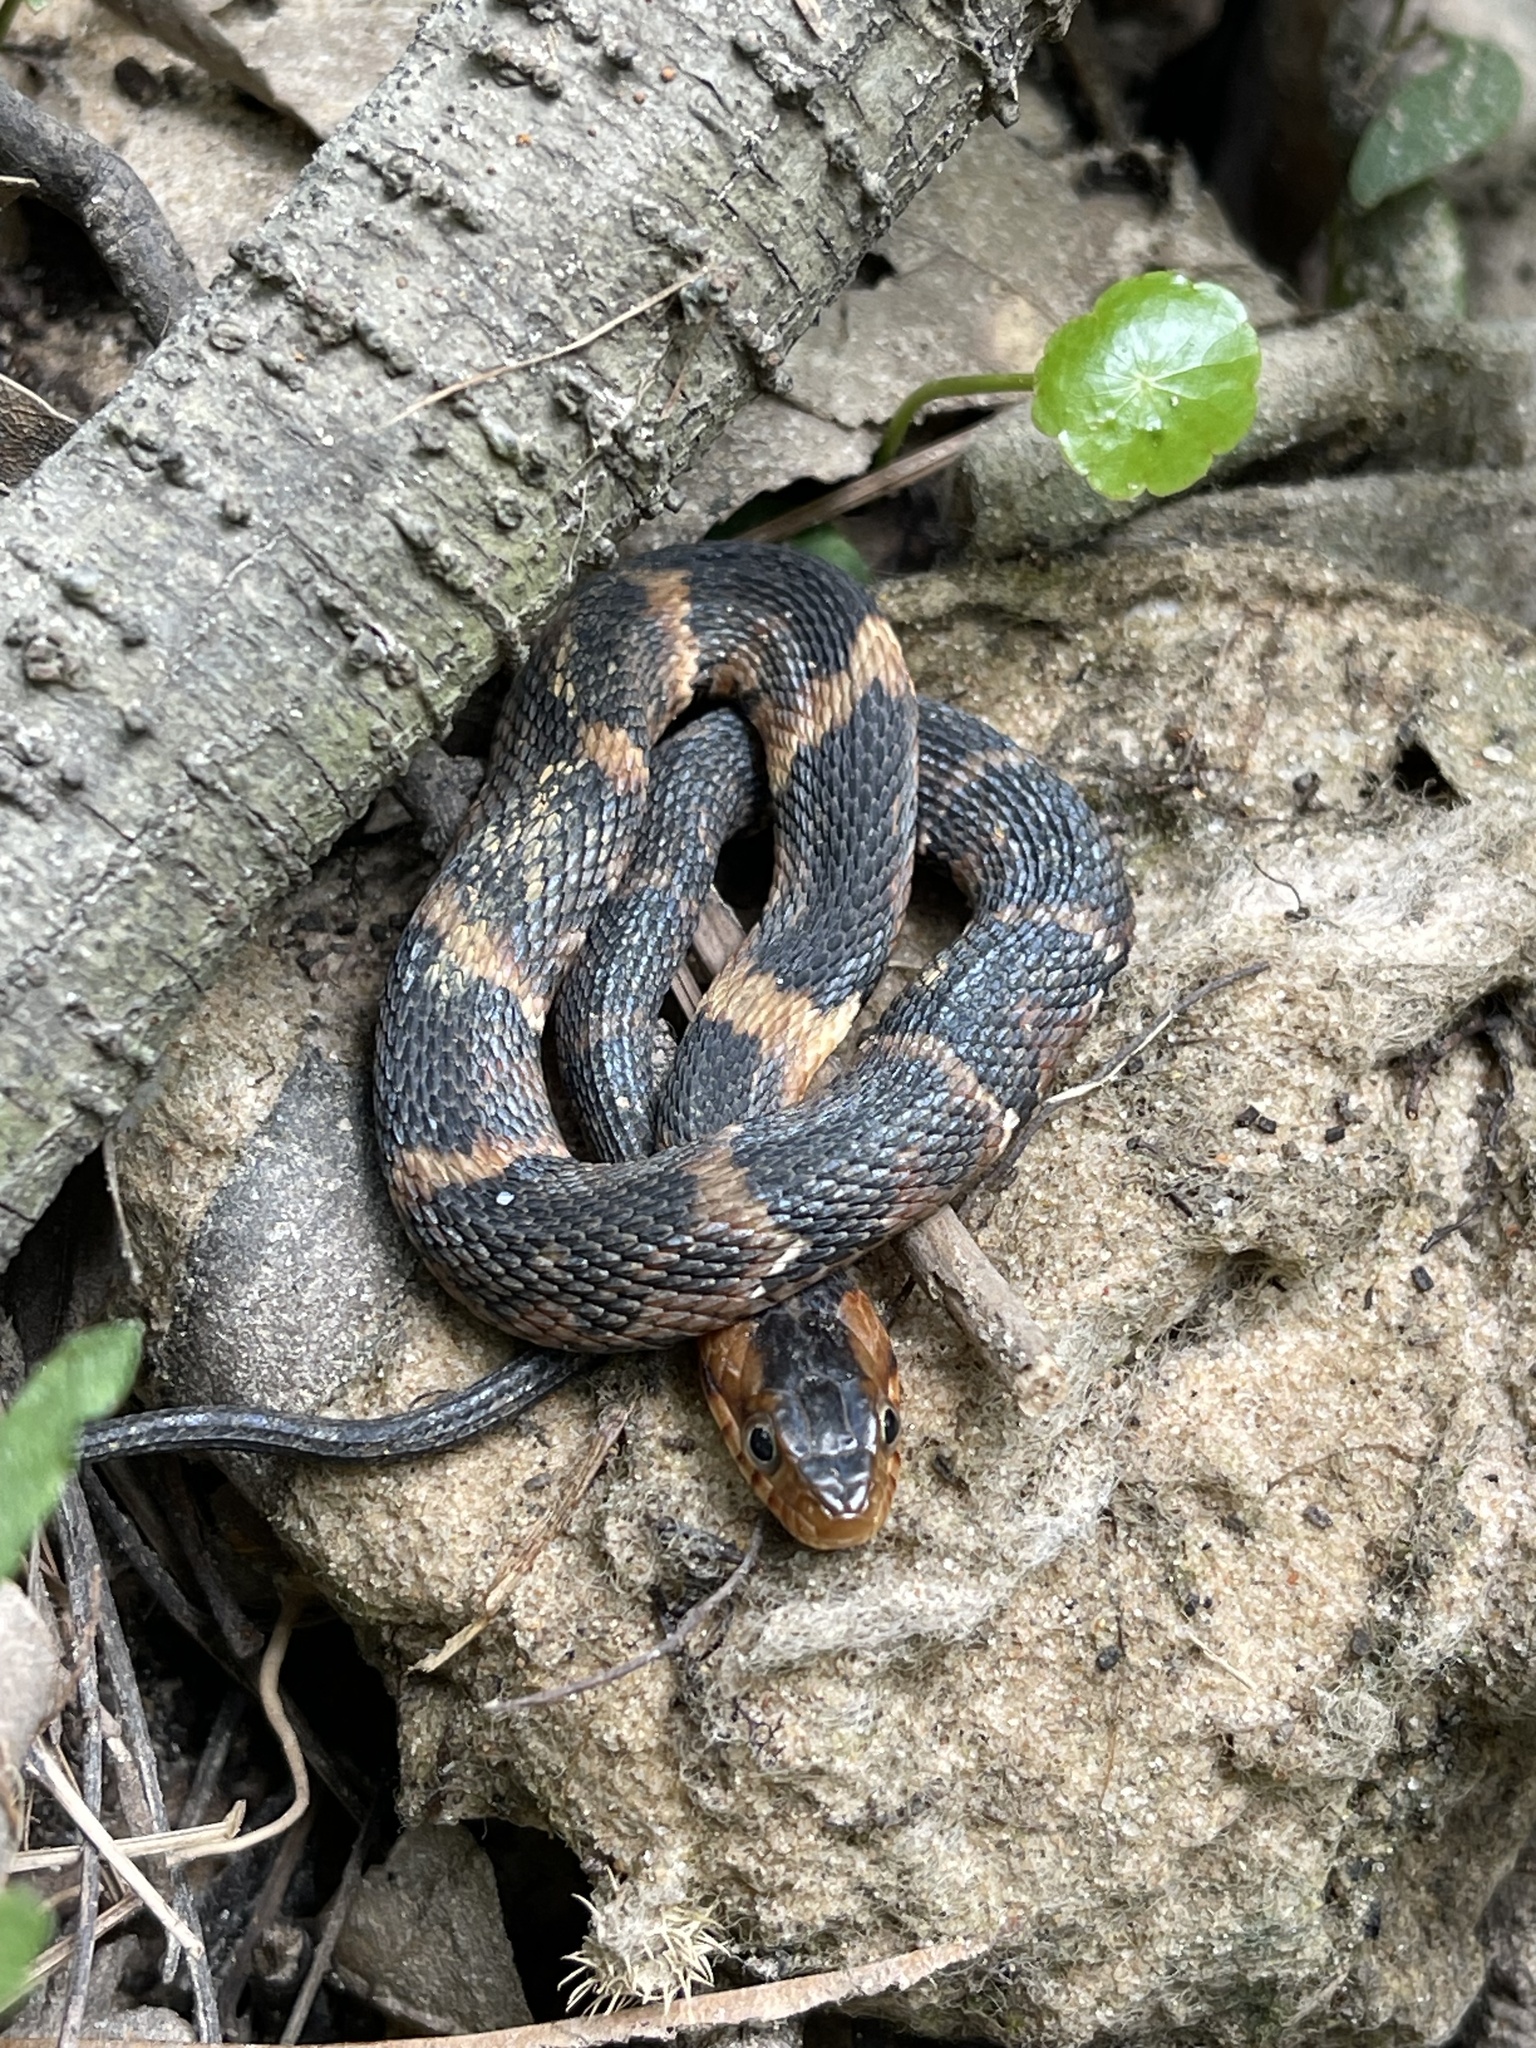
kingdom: Animalia
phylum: Chordata
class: Squamata
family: Colubridae
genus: Nerodia
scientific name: Nerodia fasciata
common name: Southern water snake
